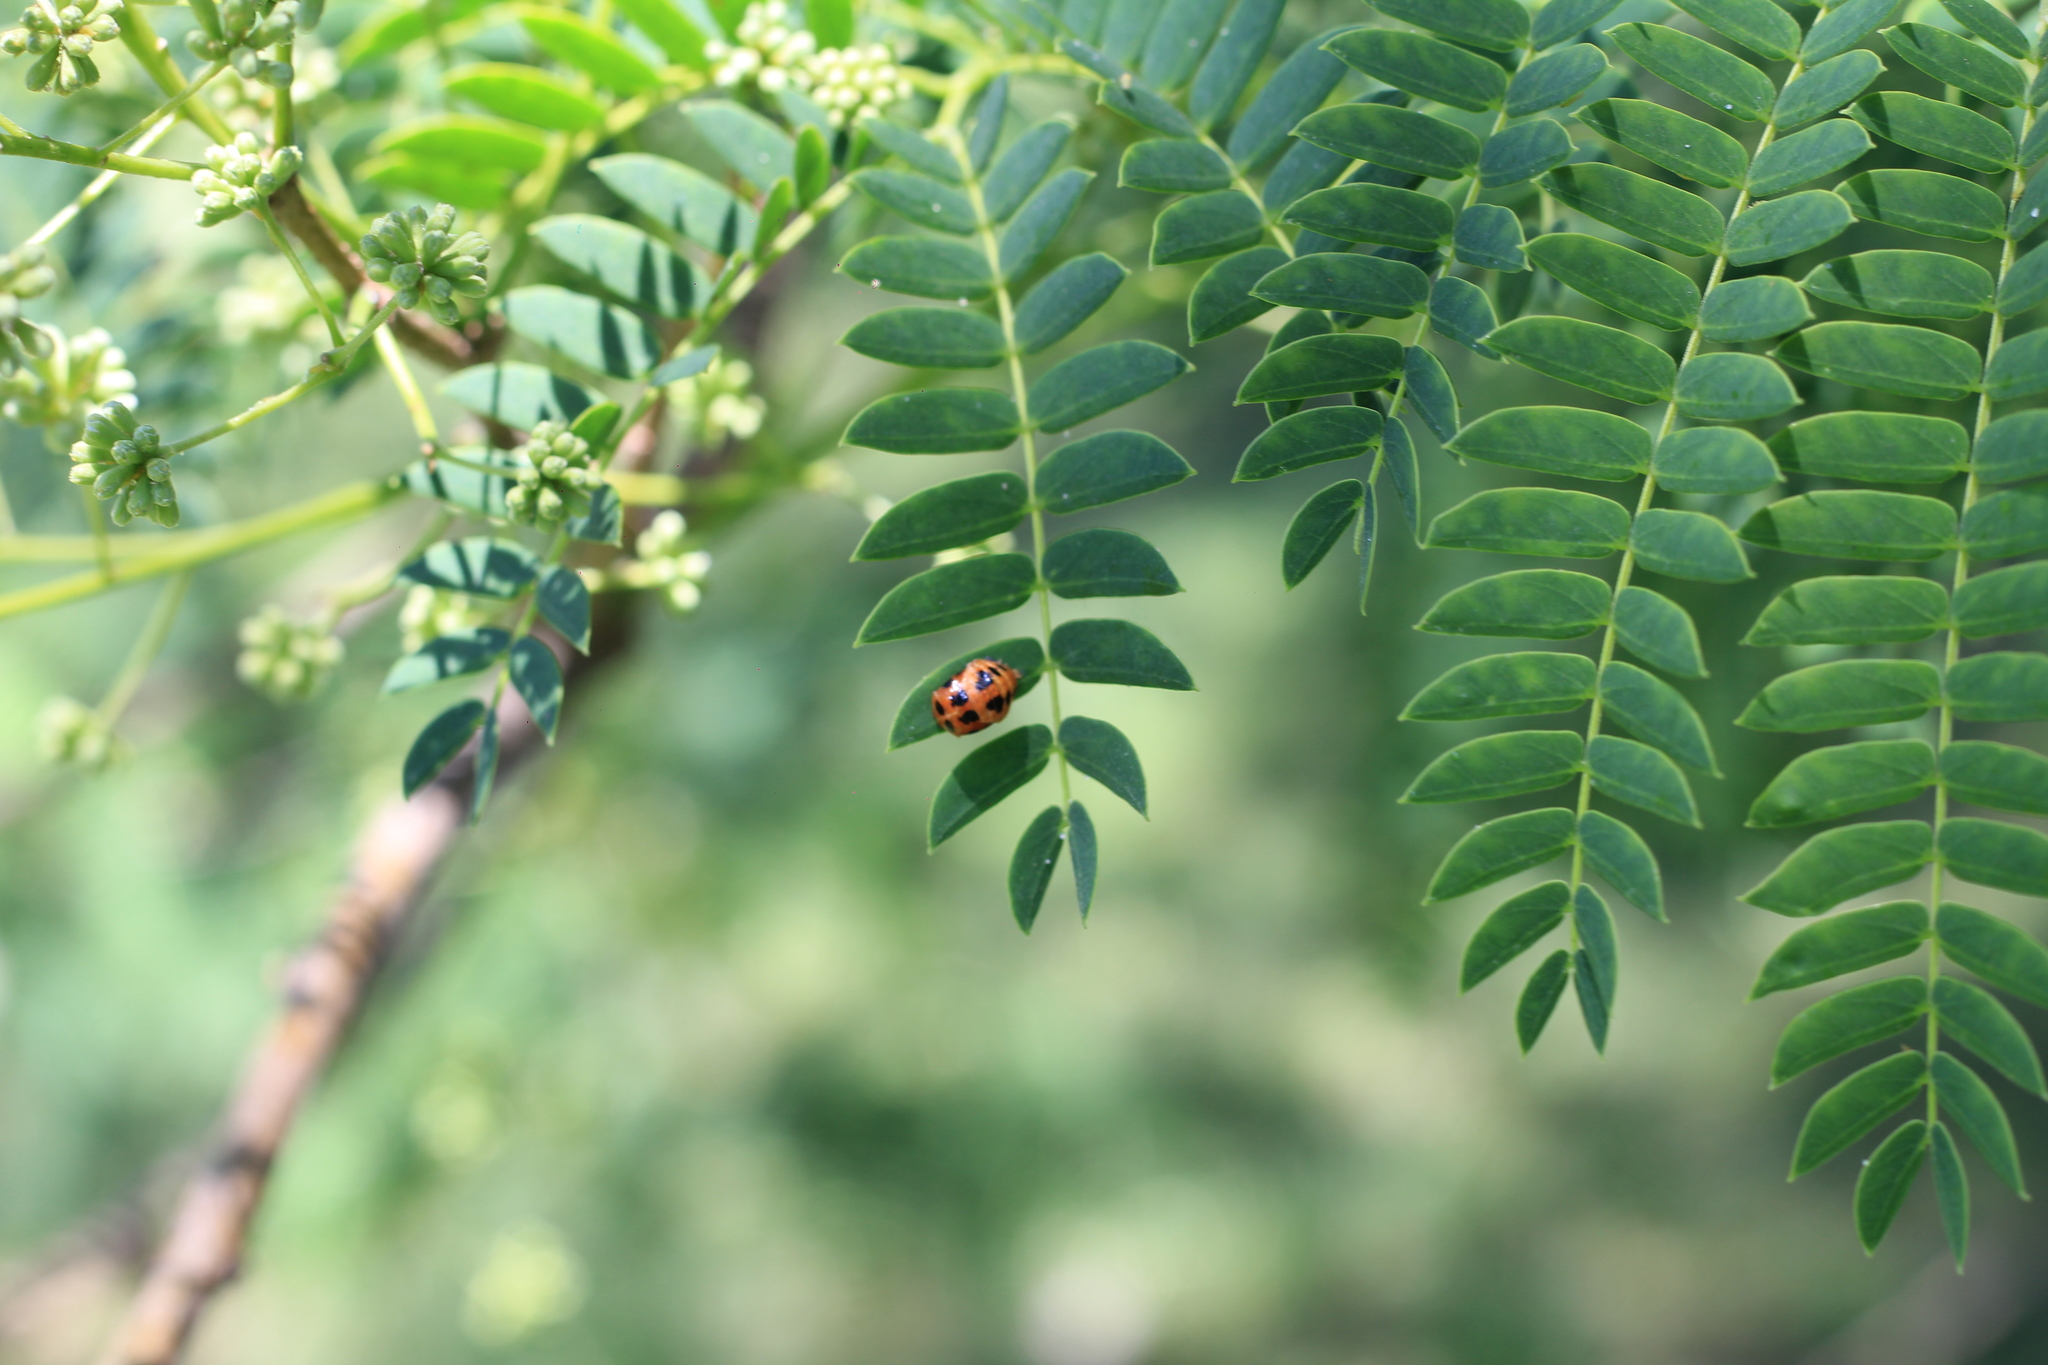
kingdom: Animalia
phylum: Arthropoda
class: Insecta
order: Coleoptera
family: Coccinellidae
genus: Harmonia
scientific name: Harmonia axyridis
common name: Harlequin ladybird
